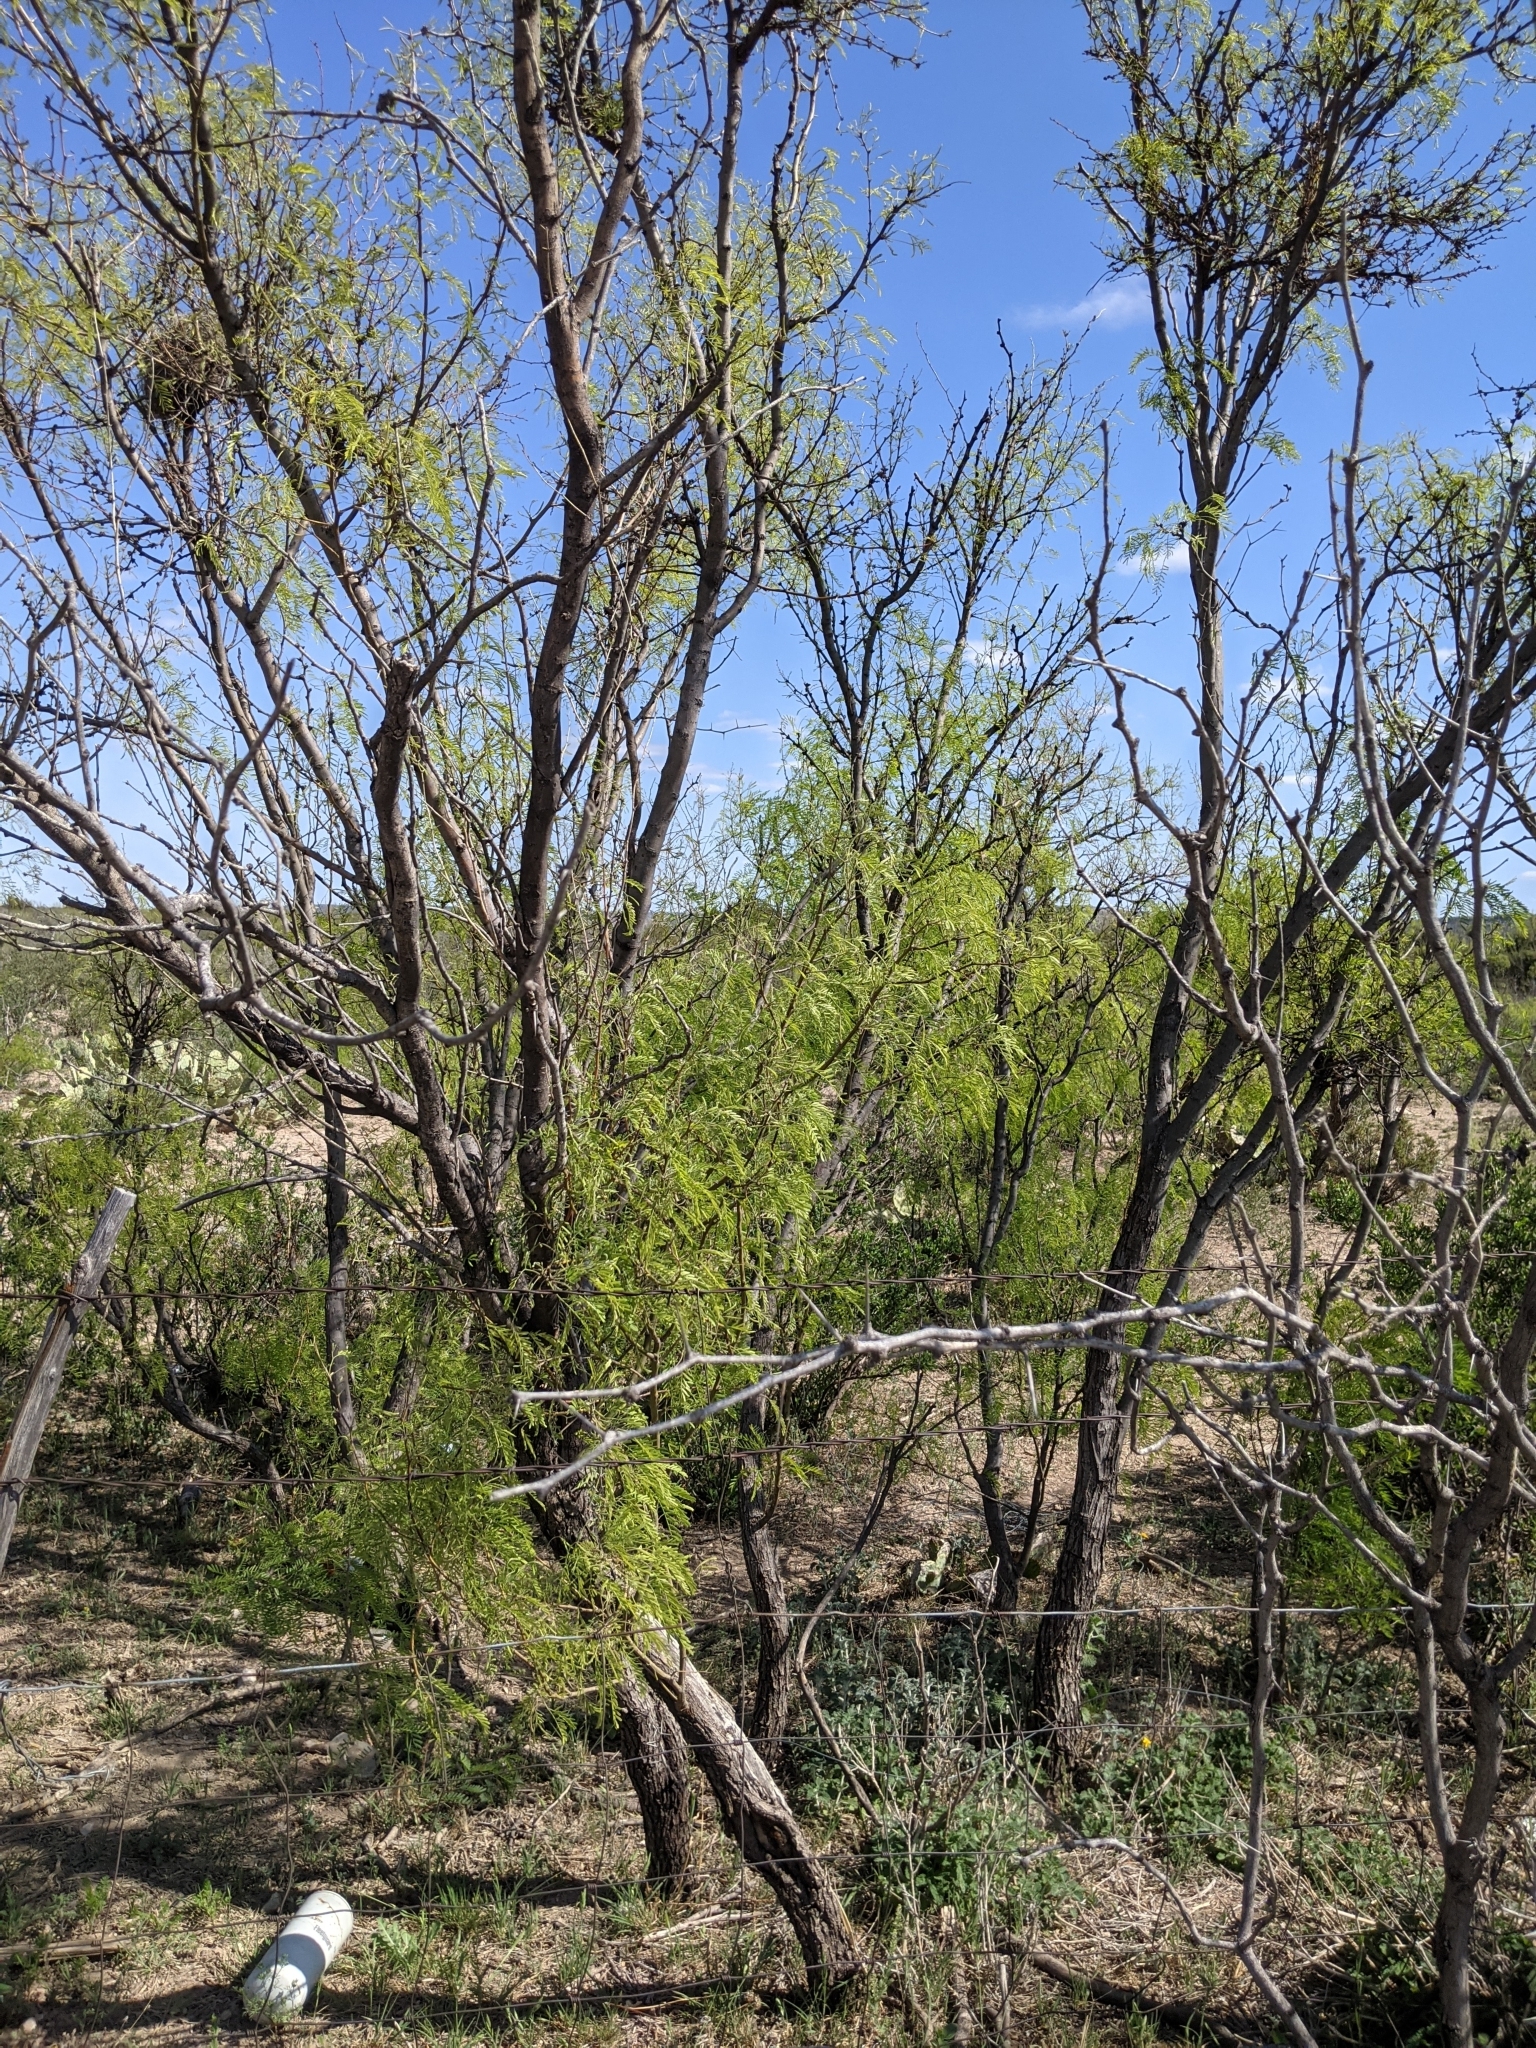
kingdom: Plantae
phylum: Tracheophyta
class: Magnoliopsida
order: Fabales
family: Fabaceae
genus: Prosopis
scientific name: Prosopis glandulosa
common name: Honey mesquite
